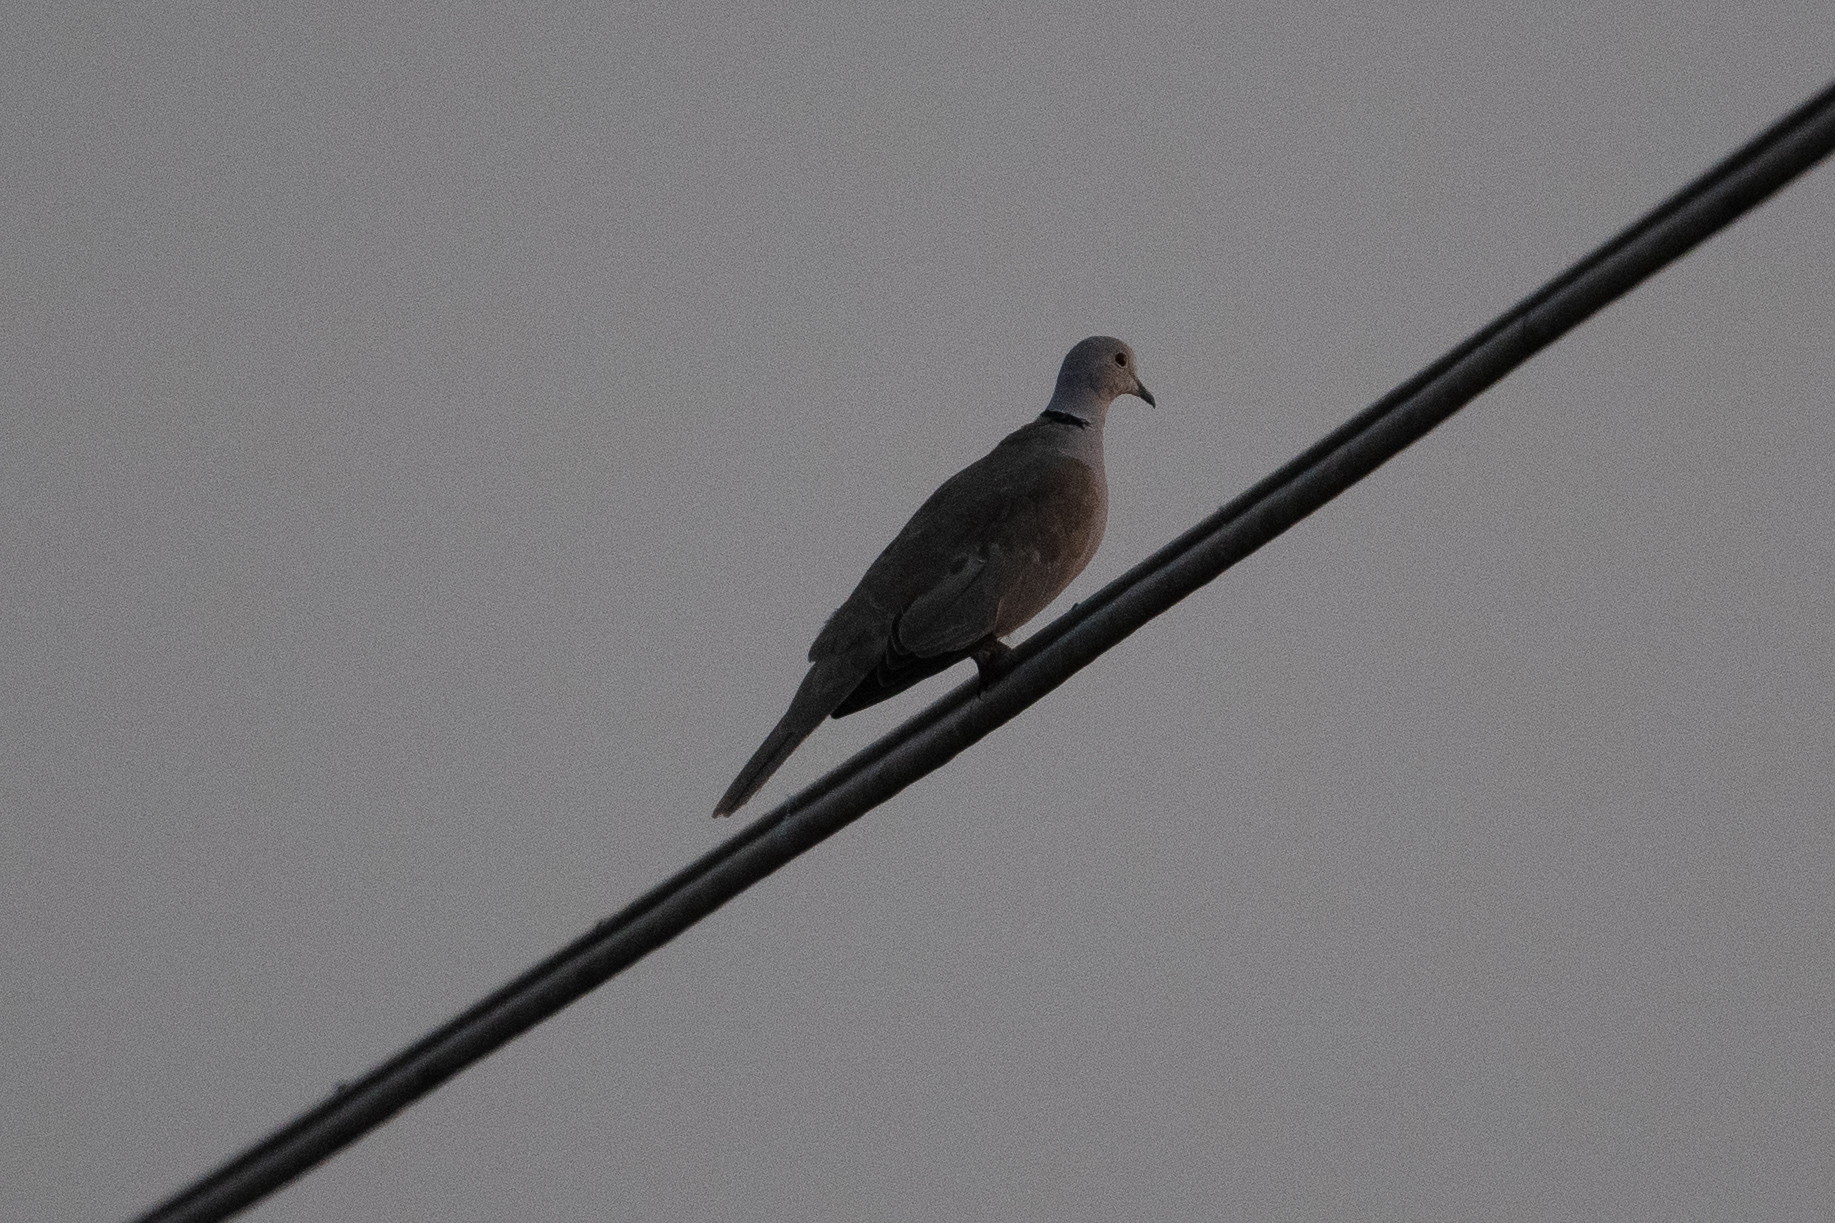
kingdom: Animalia
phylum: Chordata
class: Aves
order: Columbiformes
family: Columbidae
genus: Streptopelia
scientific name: Streptopelia decaocto
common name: Eurasian collared dove
